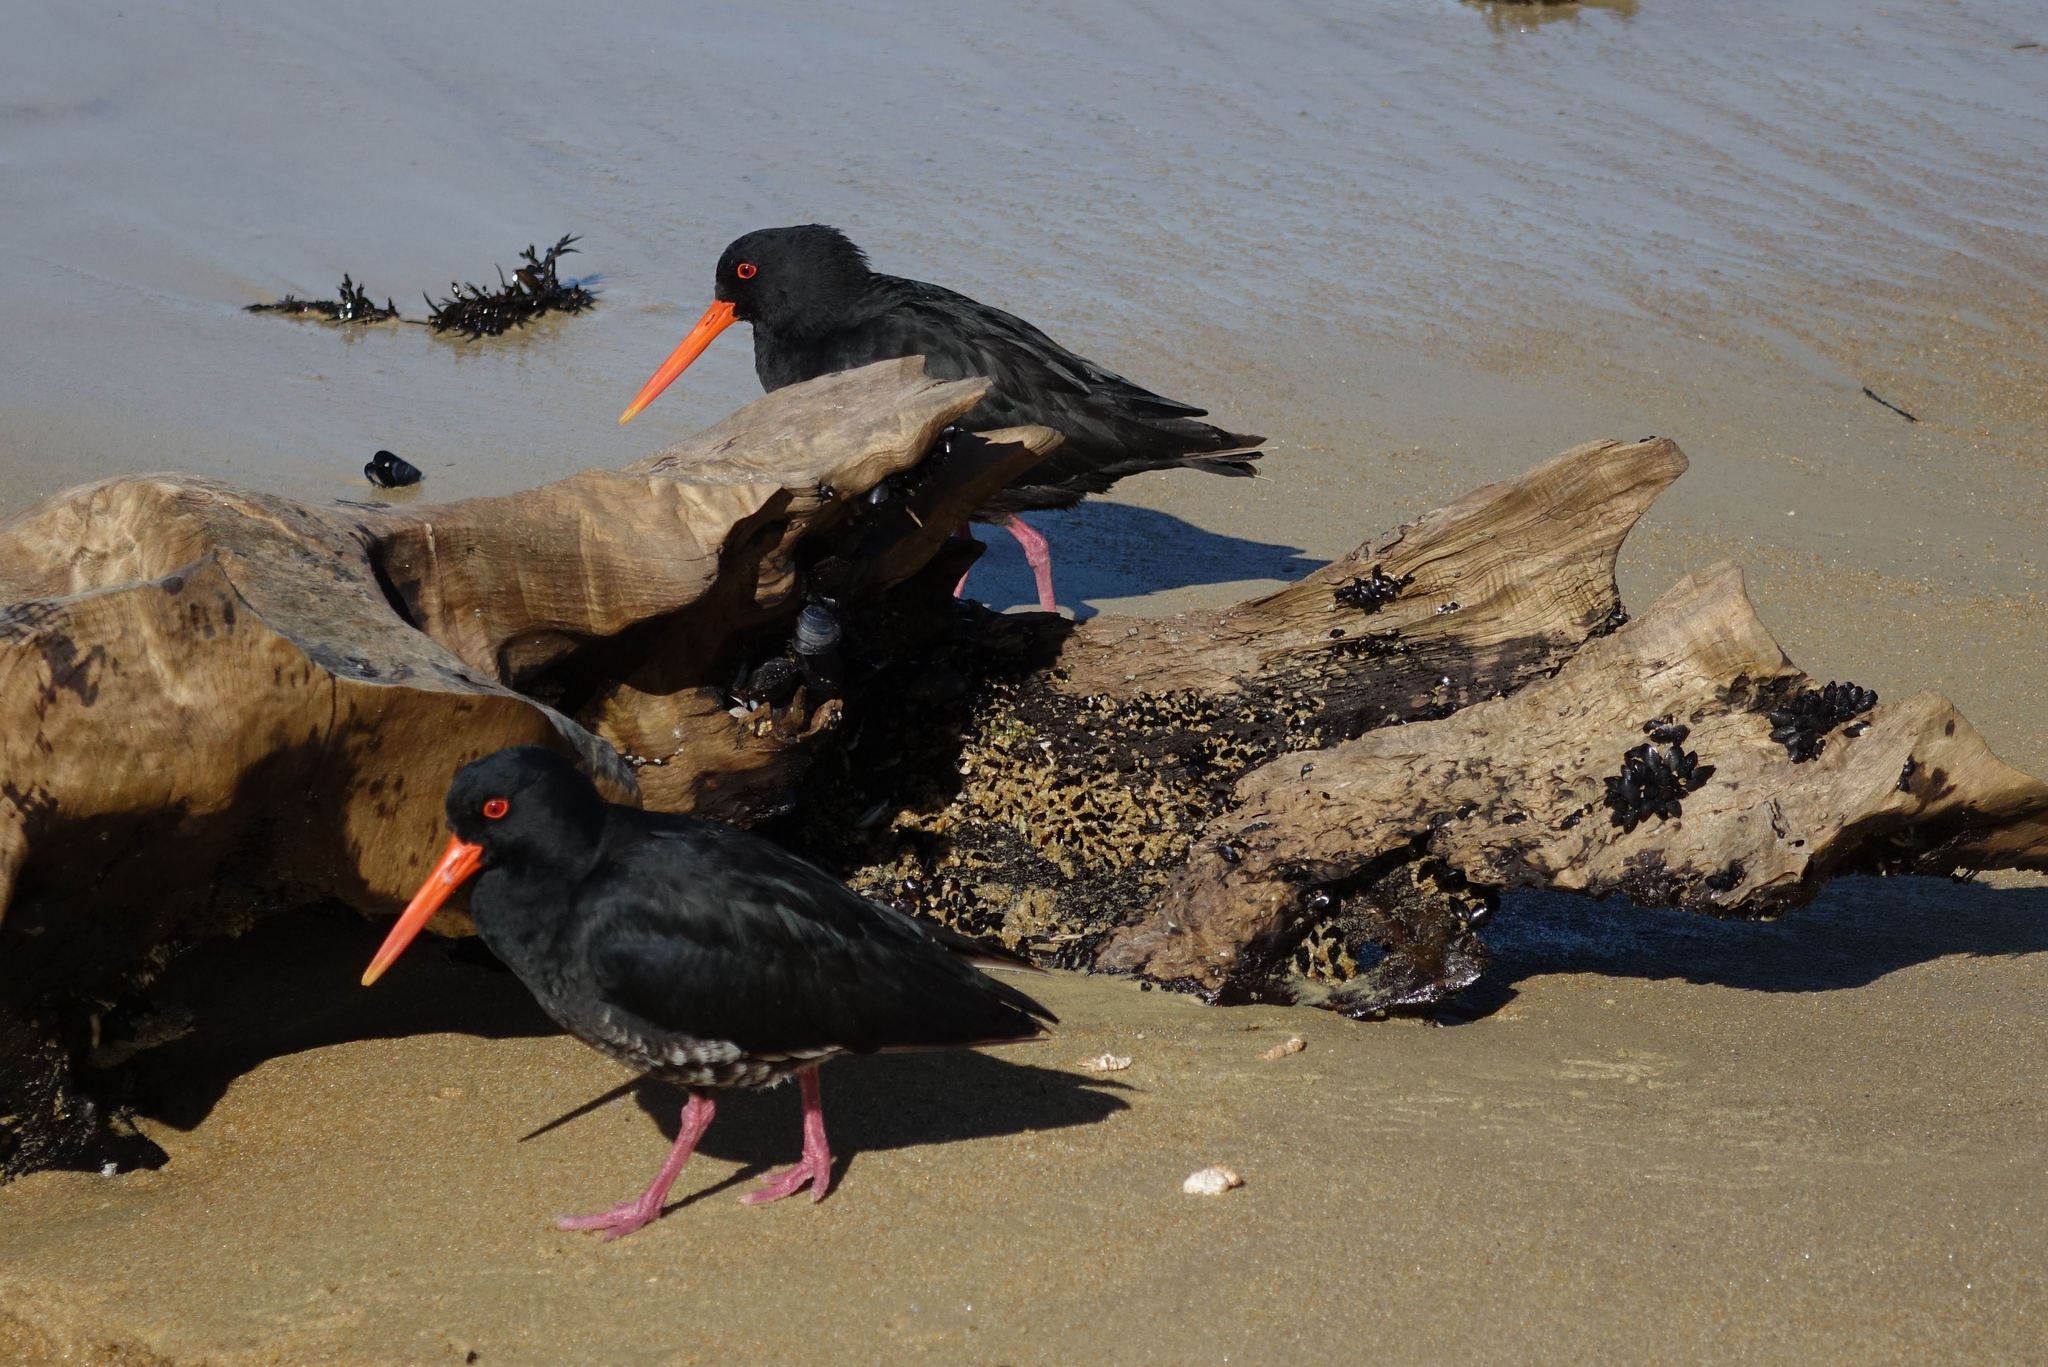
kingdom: Animalia
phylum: Chordata
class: Aves
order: Charadriiformes
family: Haematopodidae
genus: Haematopus
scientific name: Haematopus unicolor
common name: Variable oystercatcher
